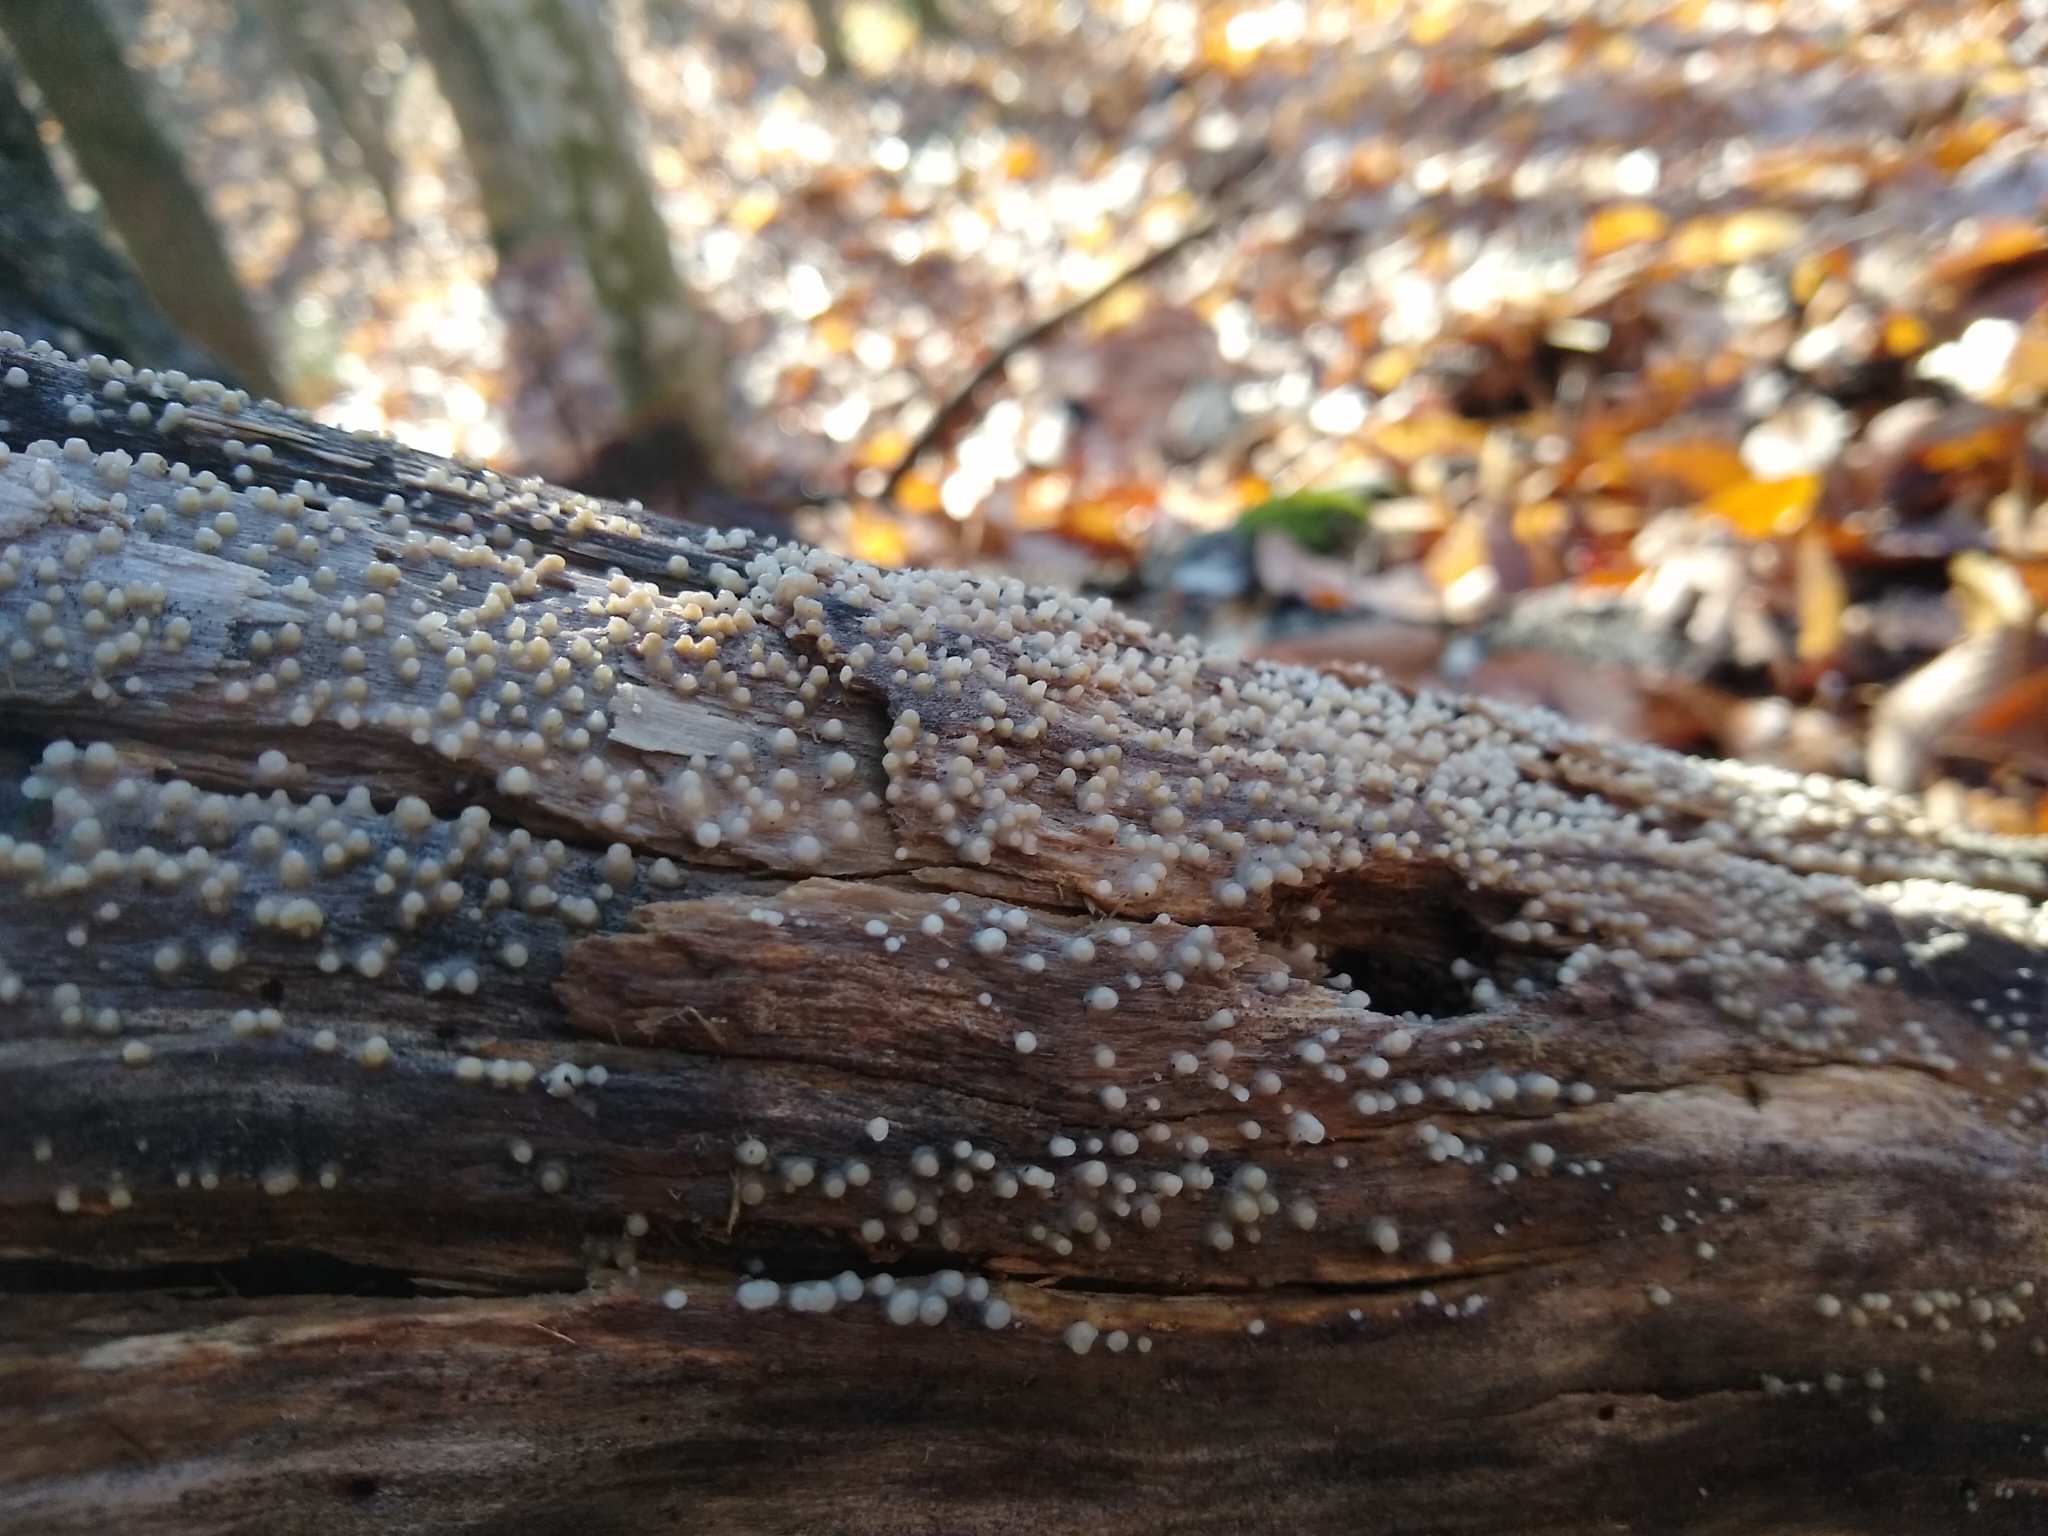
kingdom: Fungi
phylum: Basidiomycota
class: Atractiellomycetes
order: Atractiellales
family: Phleogenaceae
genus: Helicogloea
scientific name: Helicogloea compressa
